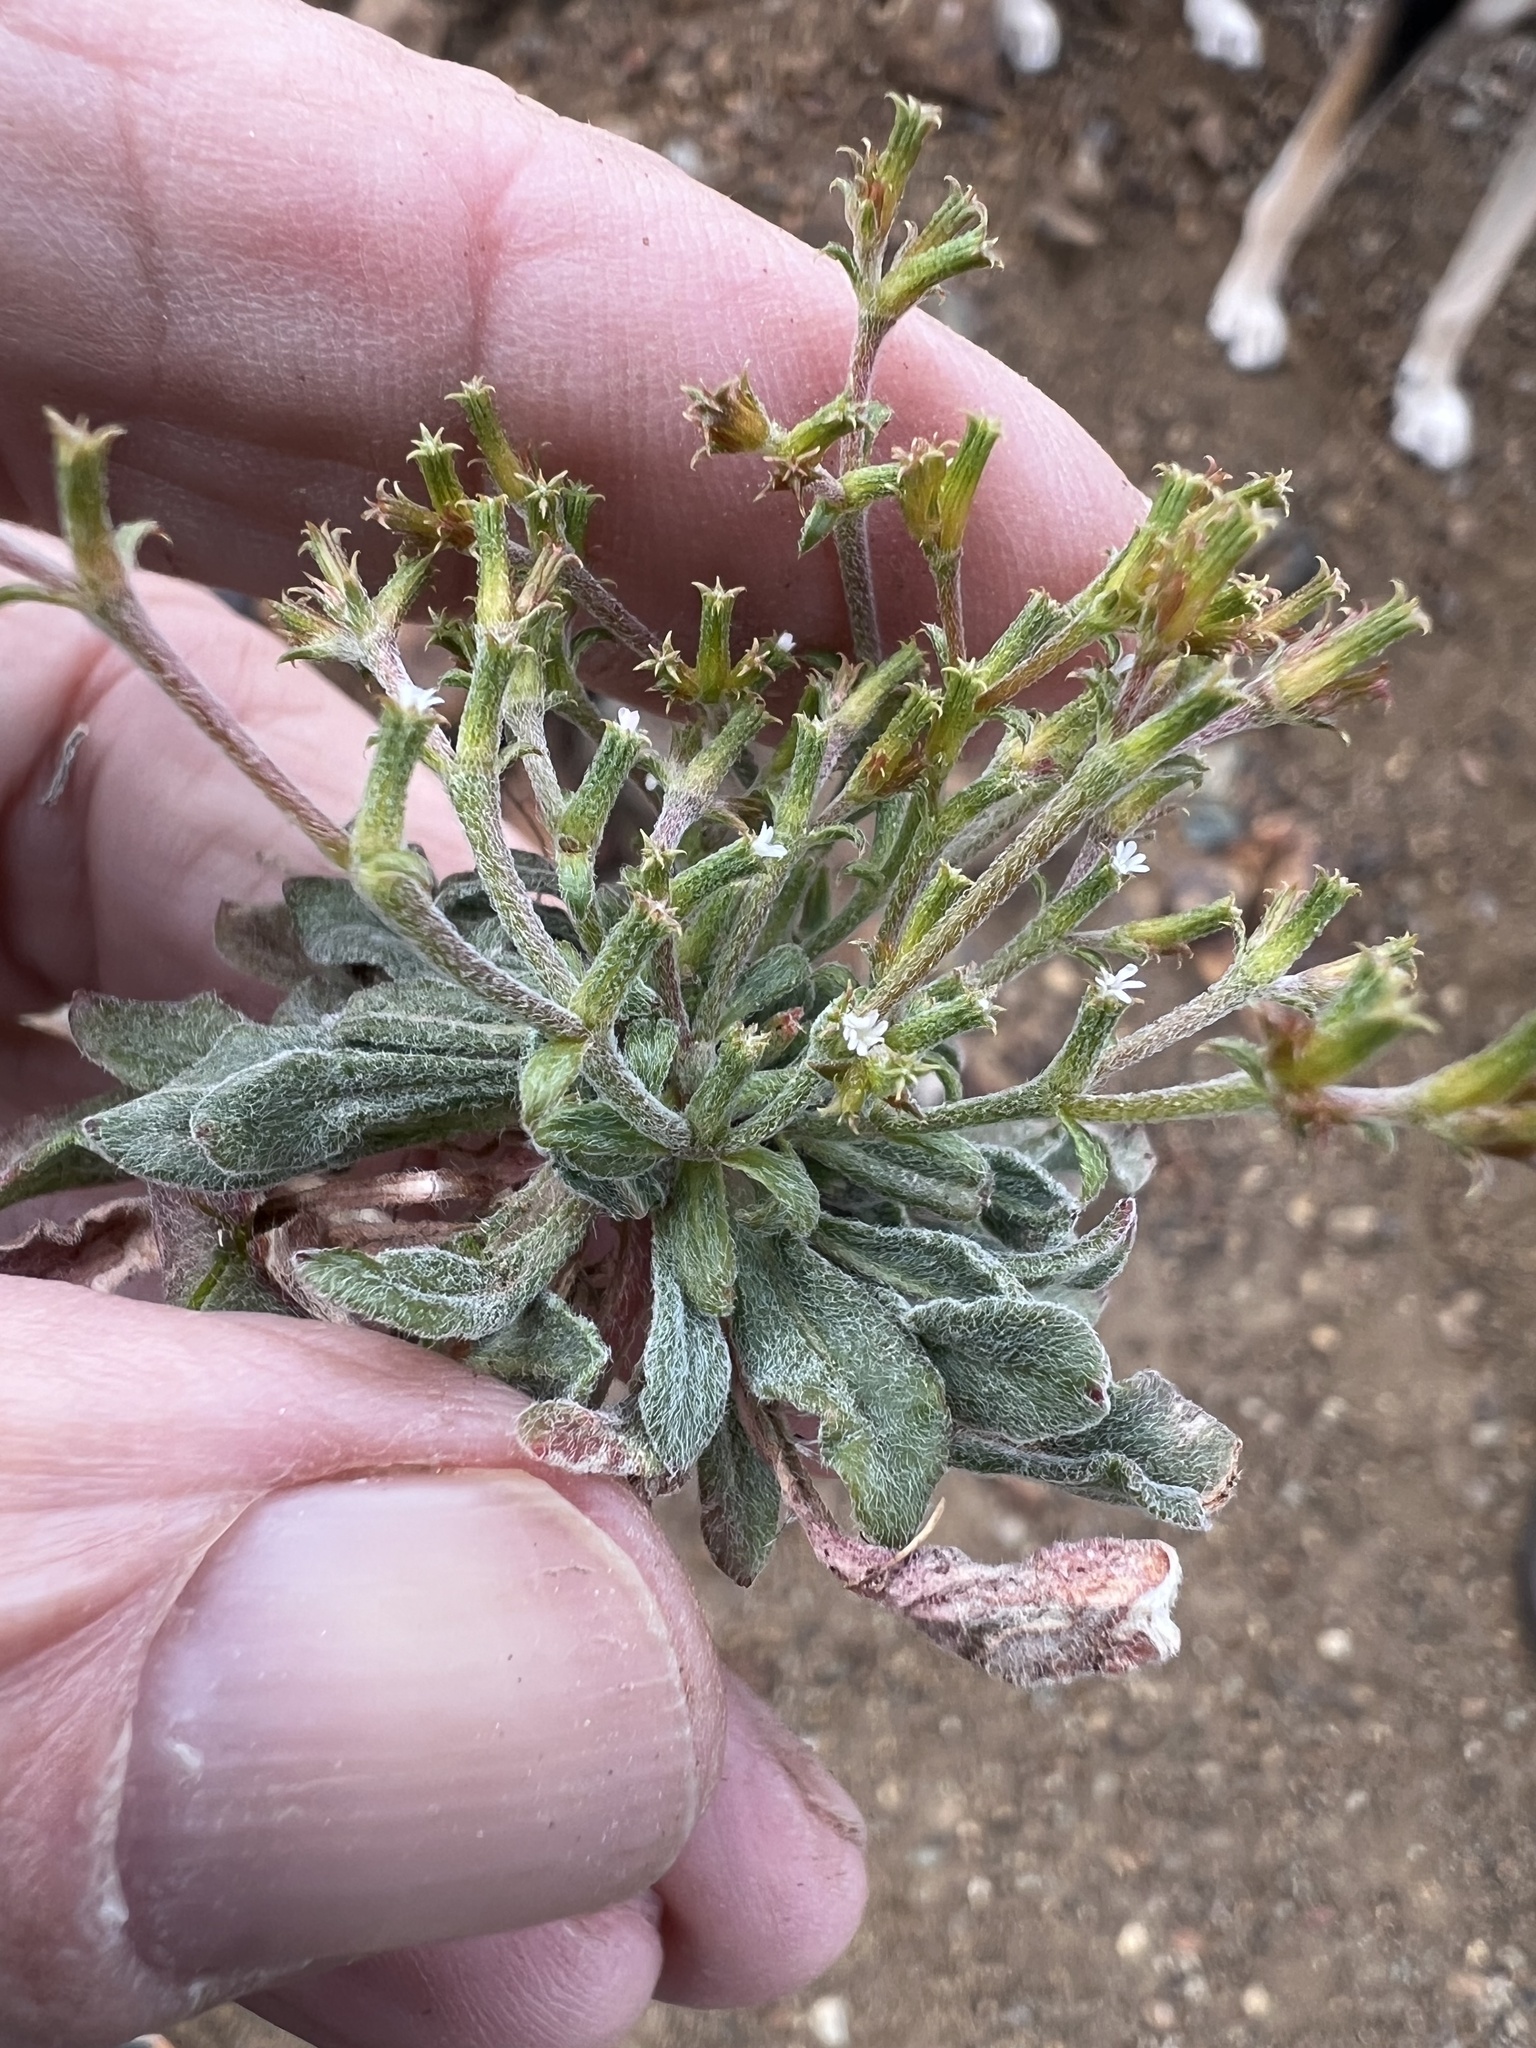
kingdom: Plantae
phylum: Tracheophyta
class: Magnoliopsida
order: Caryophyllales
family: Polygonaceae
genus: Chorizanthe
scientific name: Chorizanthe brevicornu
